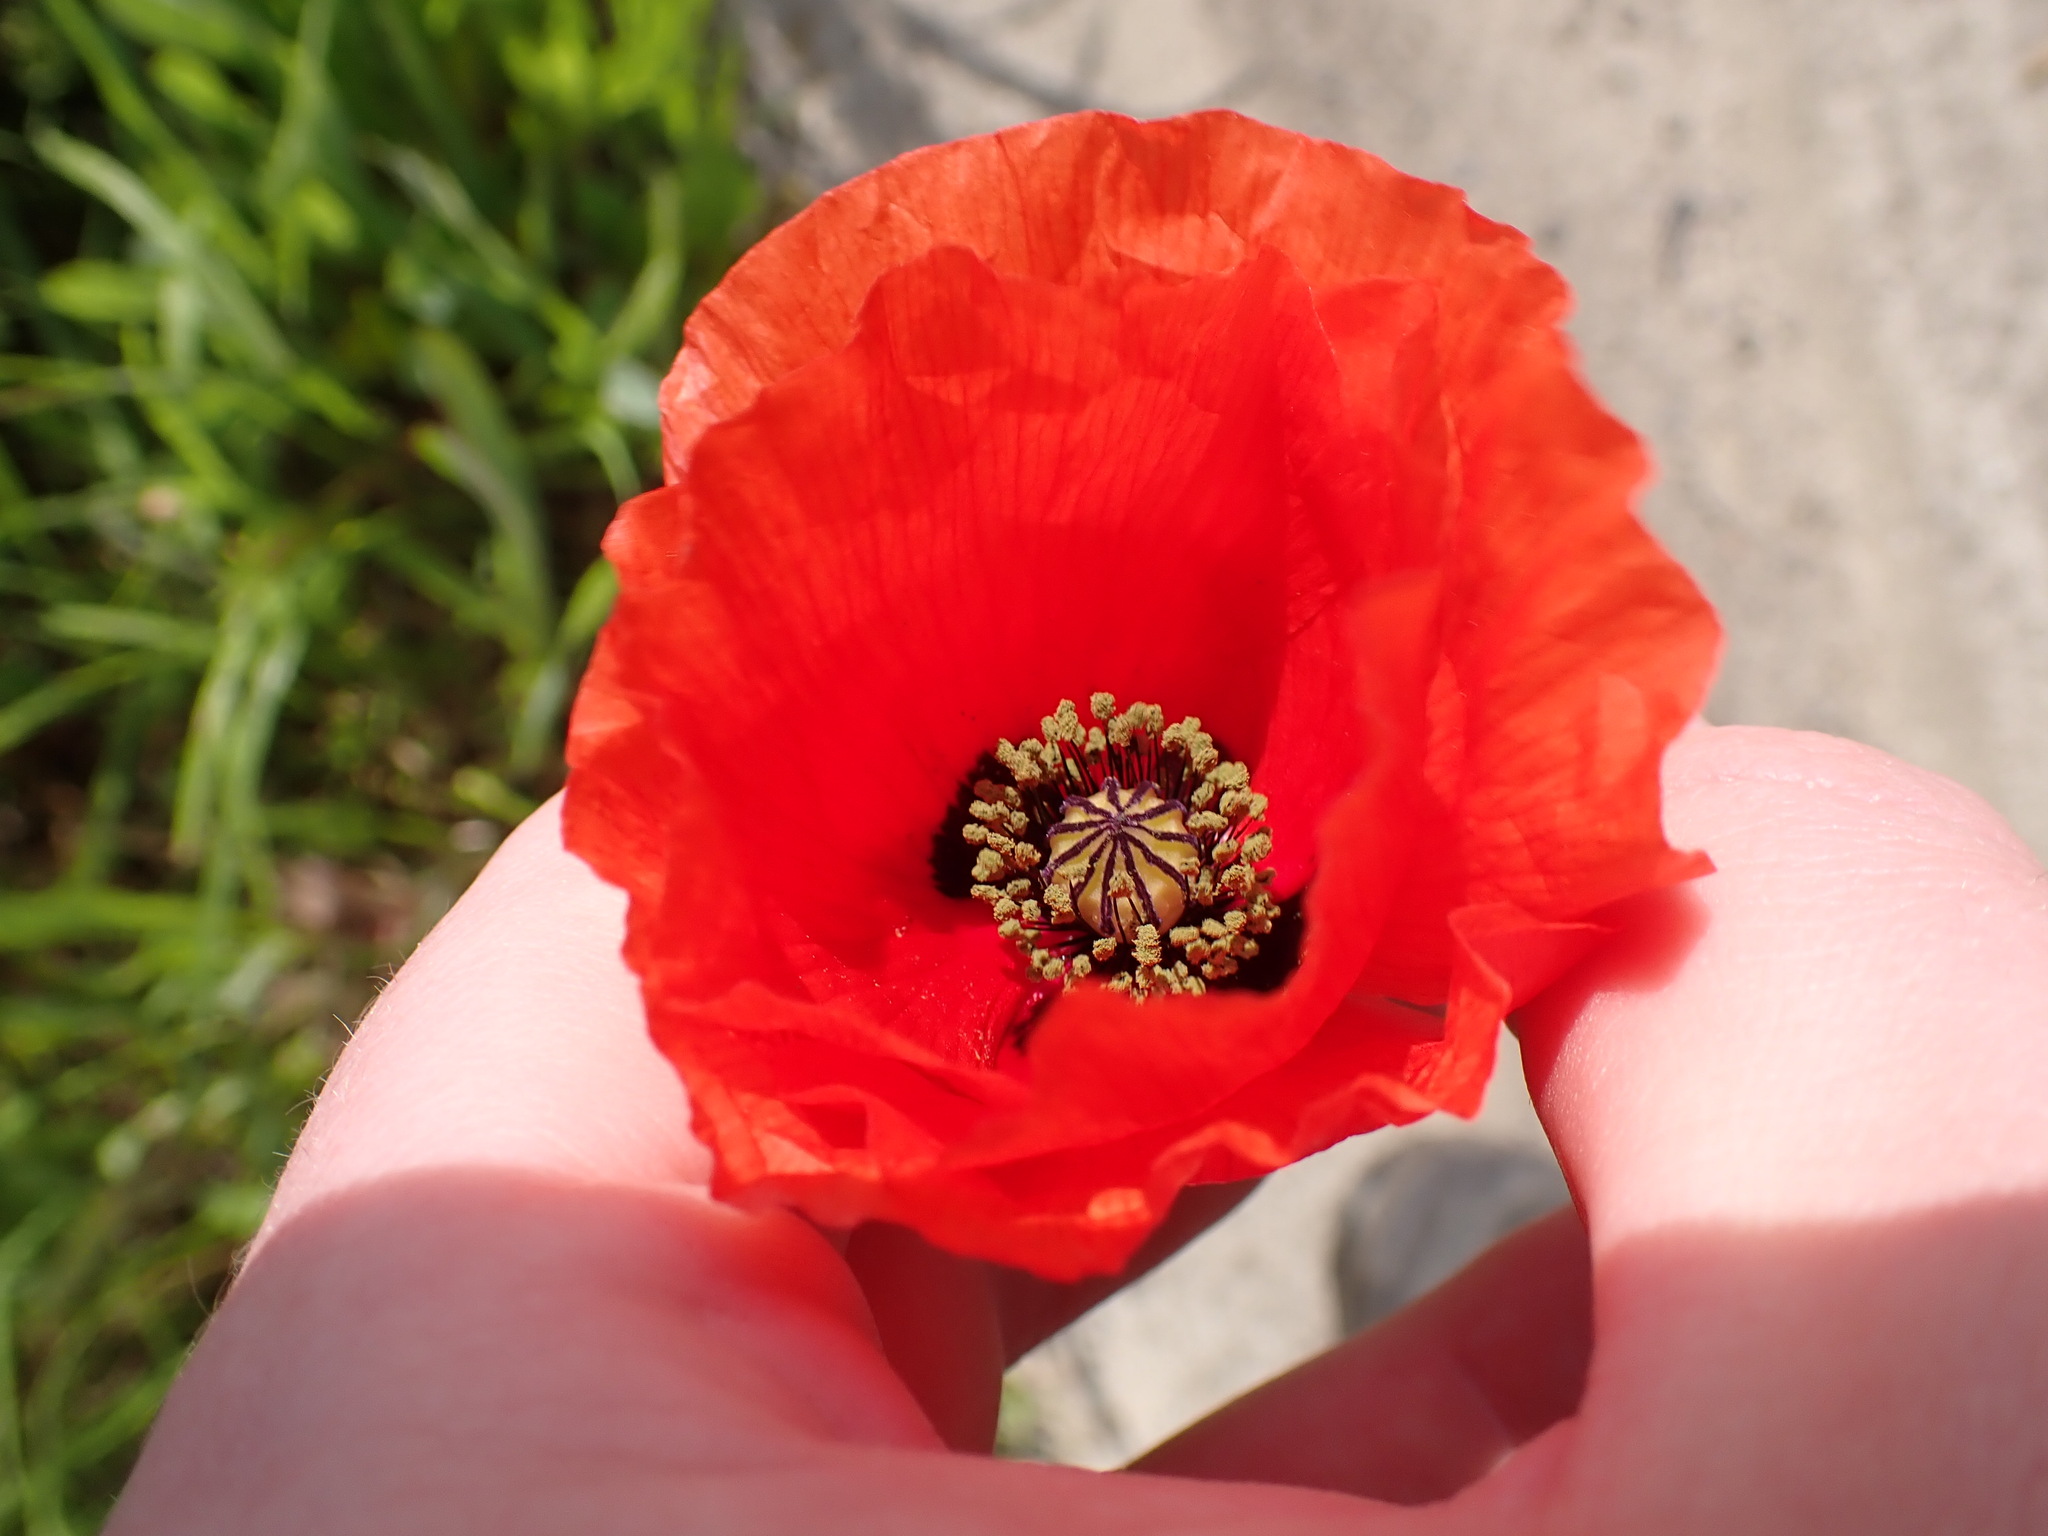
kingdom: Plantae
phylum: Tracheophyta
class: Magnoliopsida
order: Ranunculales
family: Papaveraceae
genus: Papaver
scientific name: Papaver rhoeas
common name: Corn poppy
